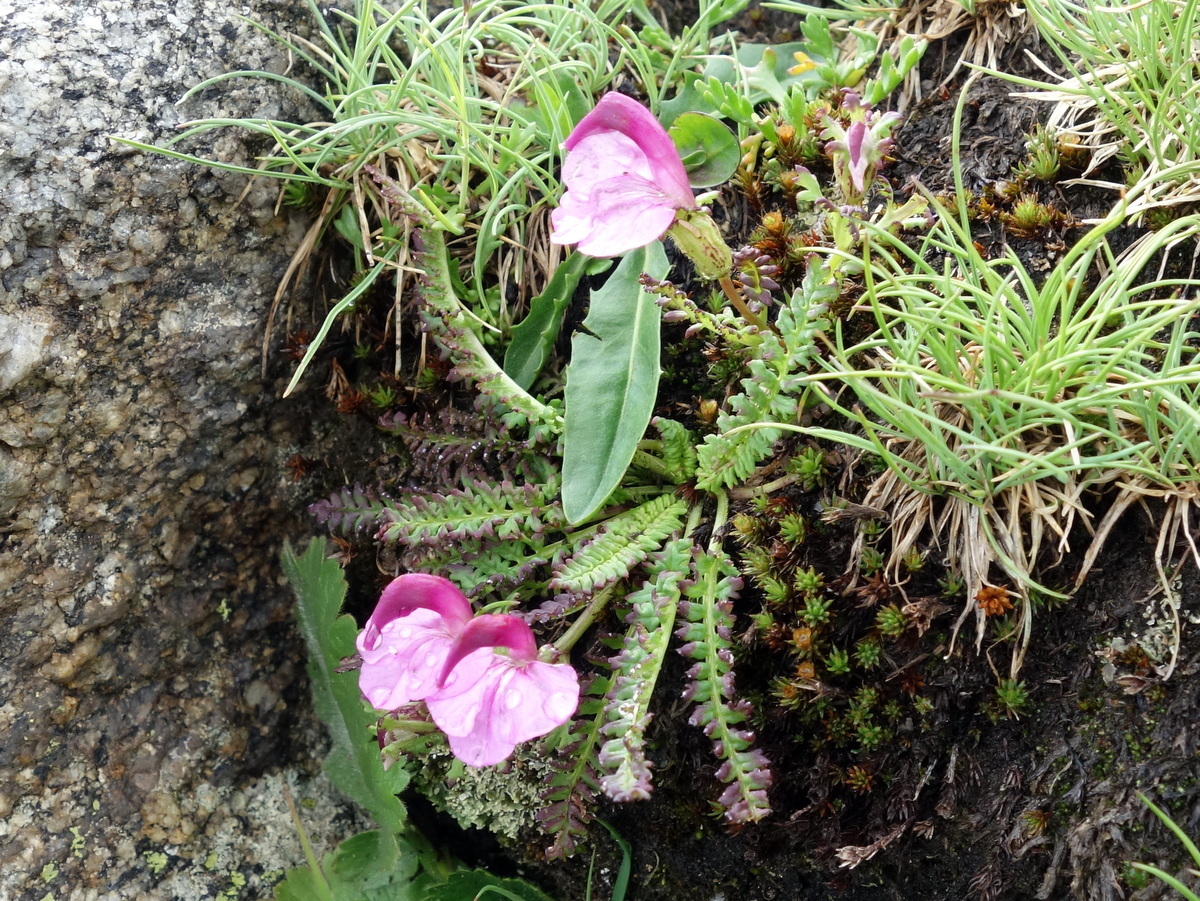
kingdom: Plantae
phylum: Tracheophyta
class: Magnoliopsida
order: Lamiales
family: Orobanchaceae
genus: Pedicularis
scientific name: Pedicularis kerneri
